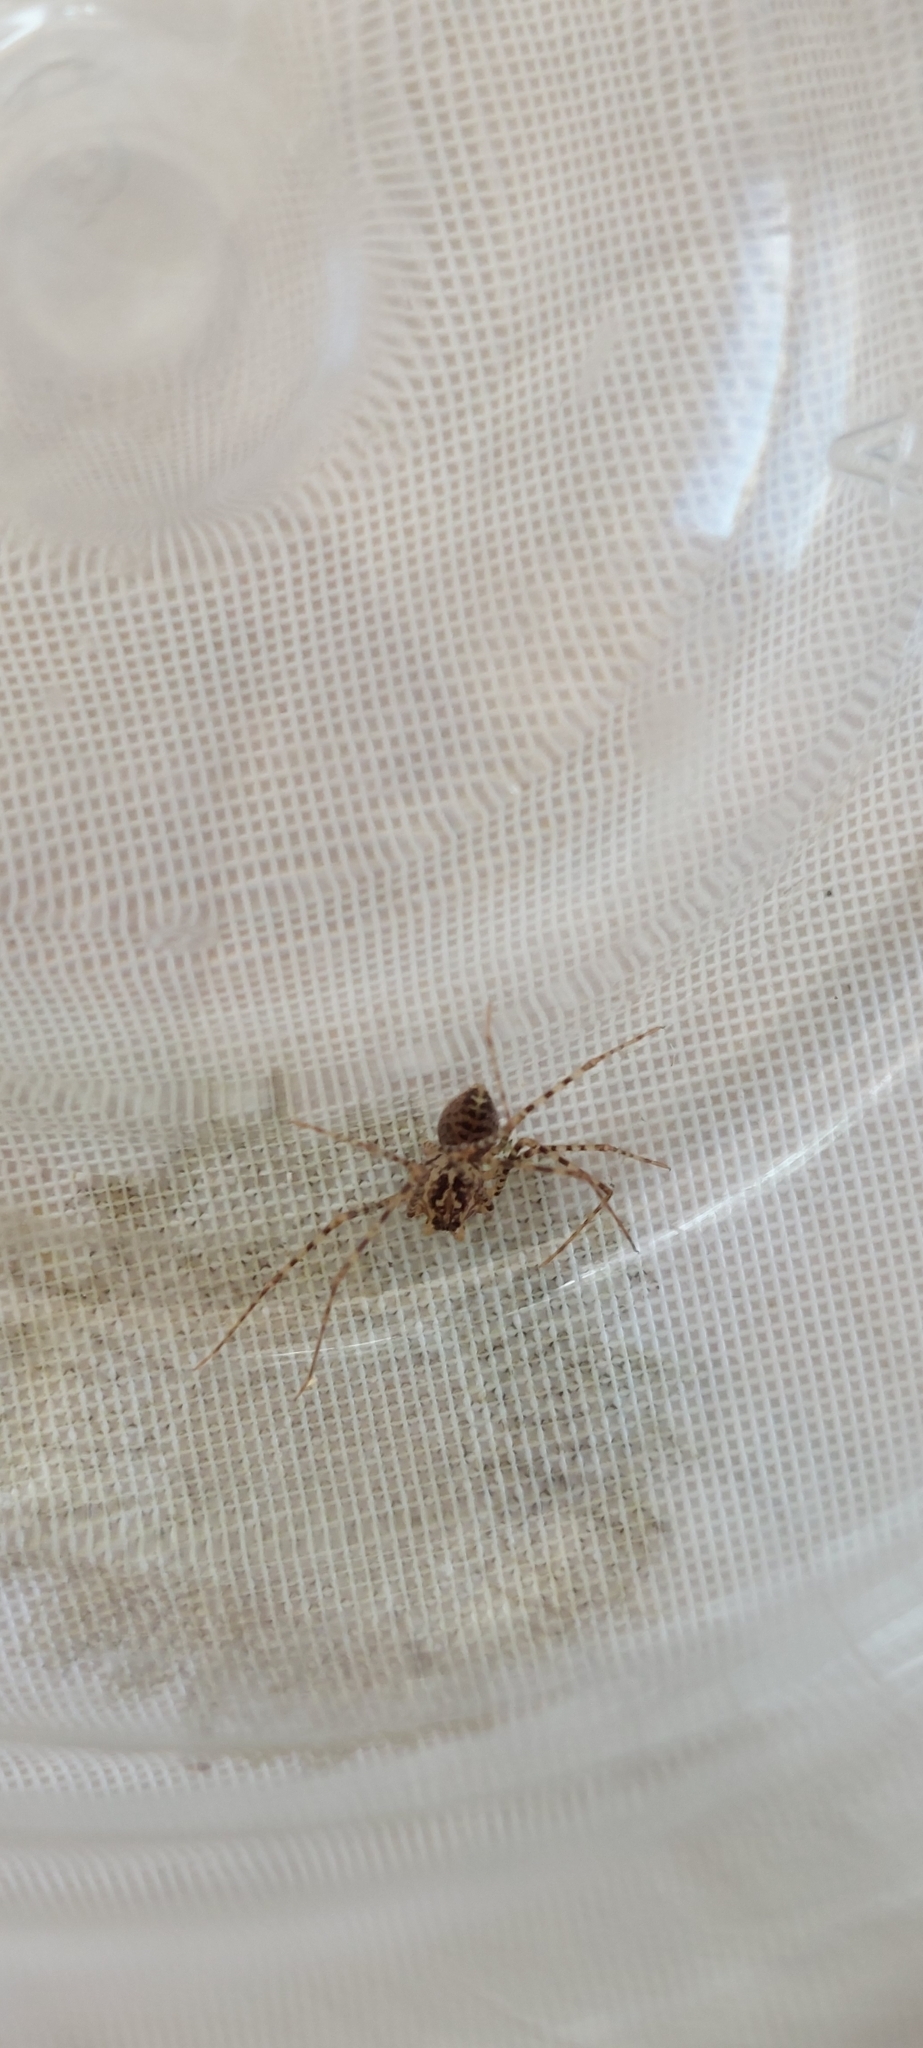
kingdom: Animalia
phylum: Arthropoda
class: Arachnida
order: Araneae
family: Scytodidae
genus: Scytodes
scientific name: Scytodes globula
